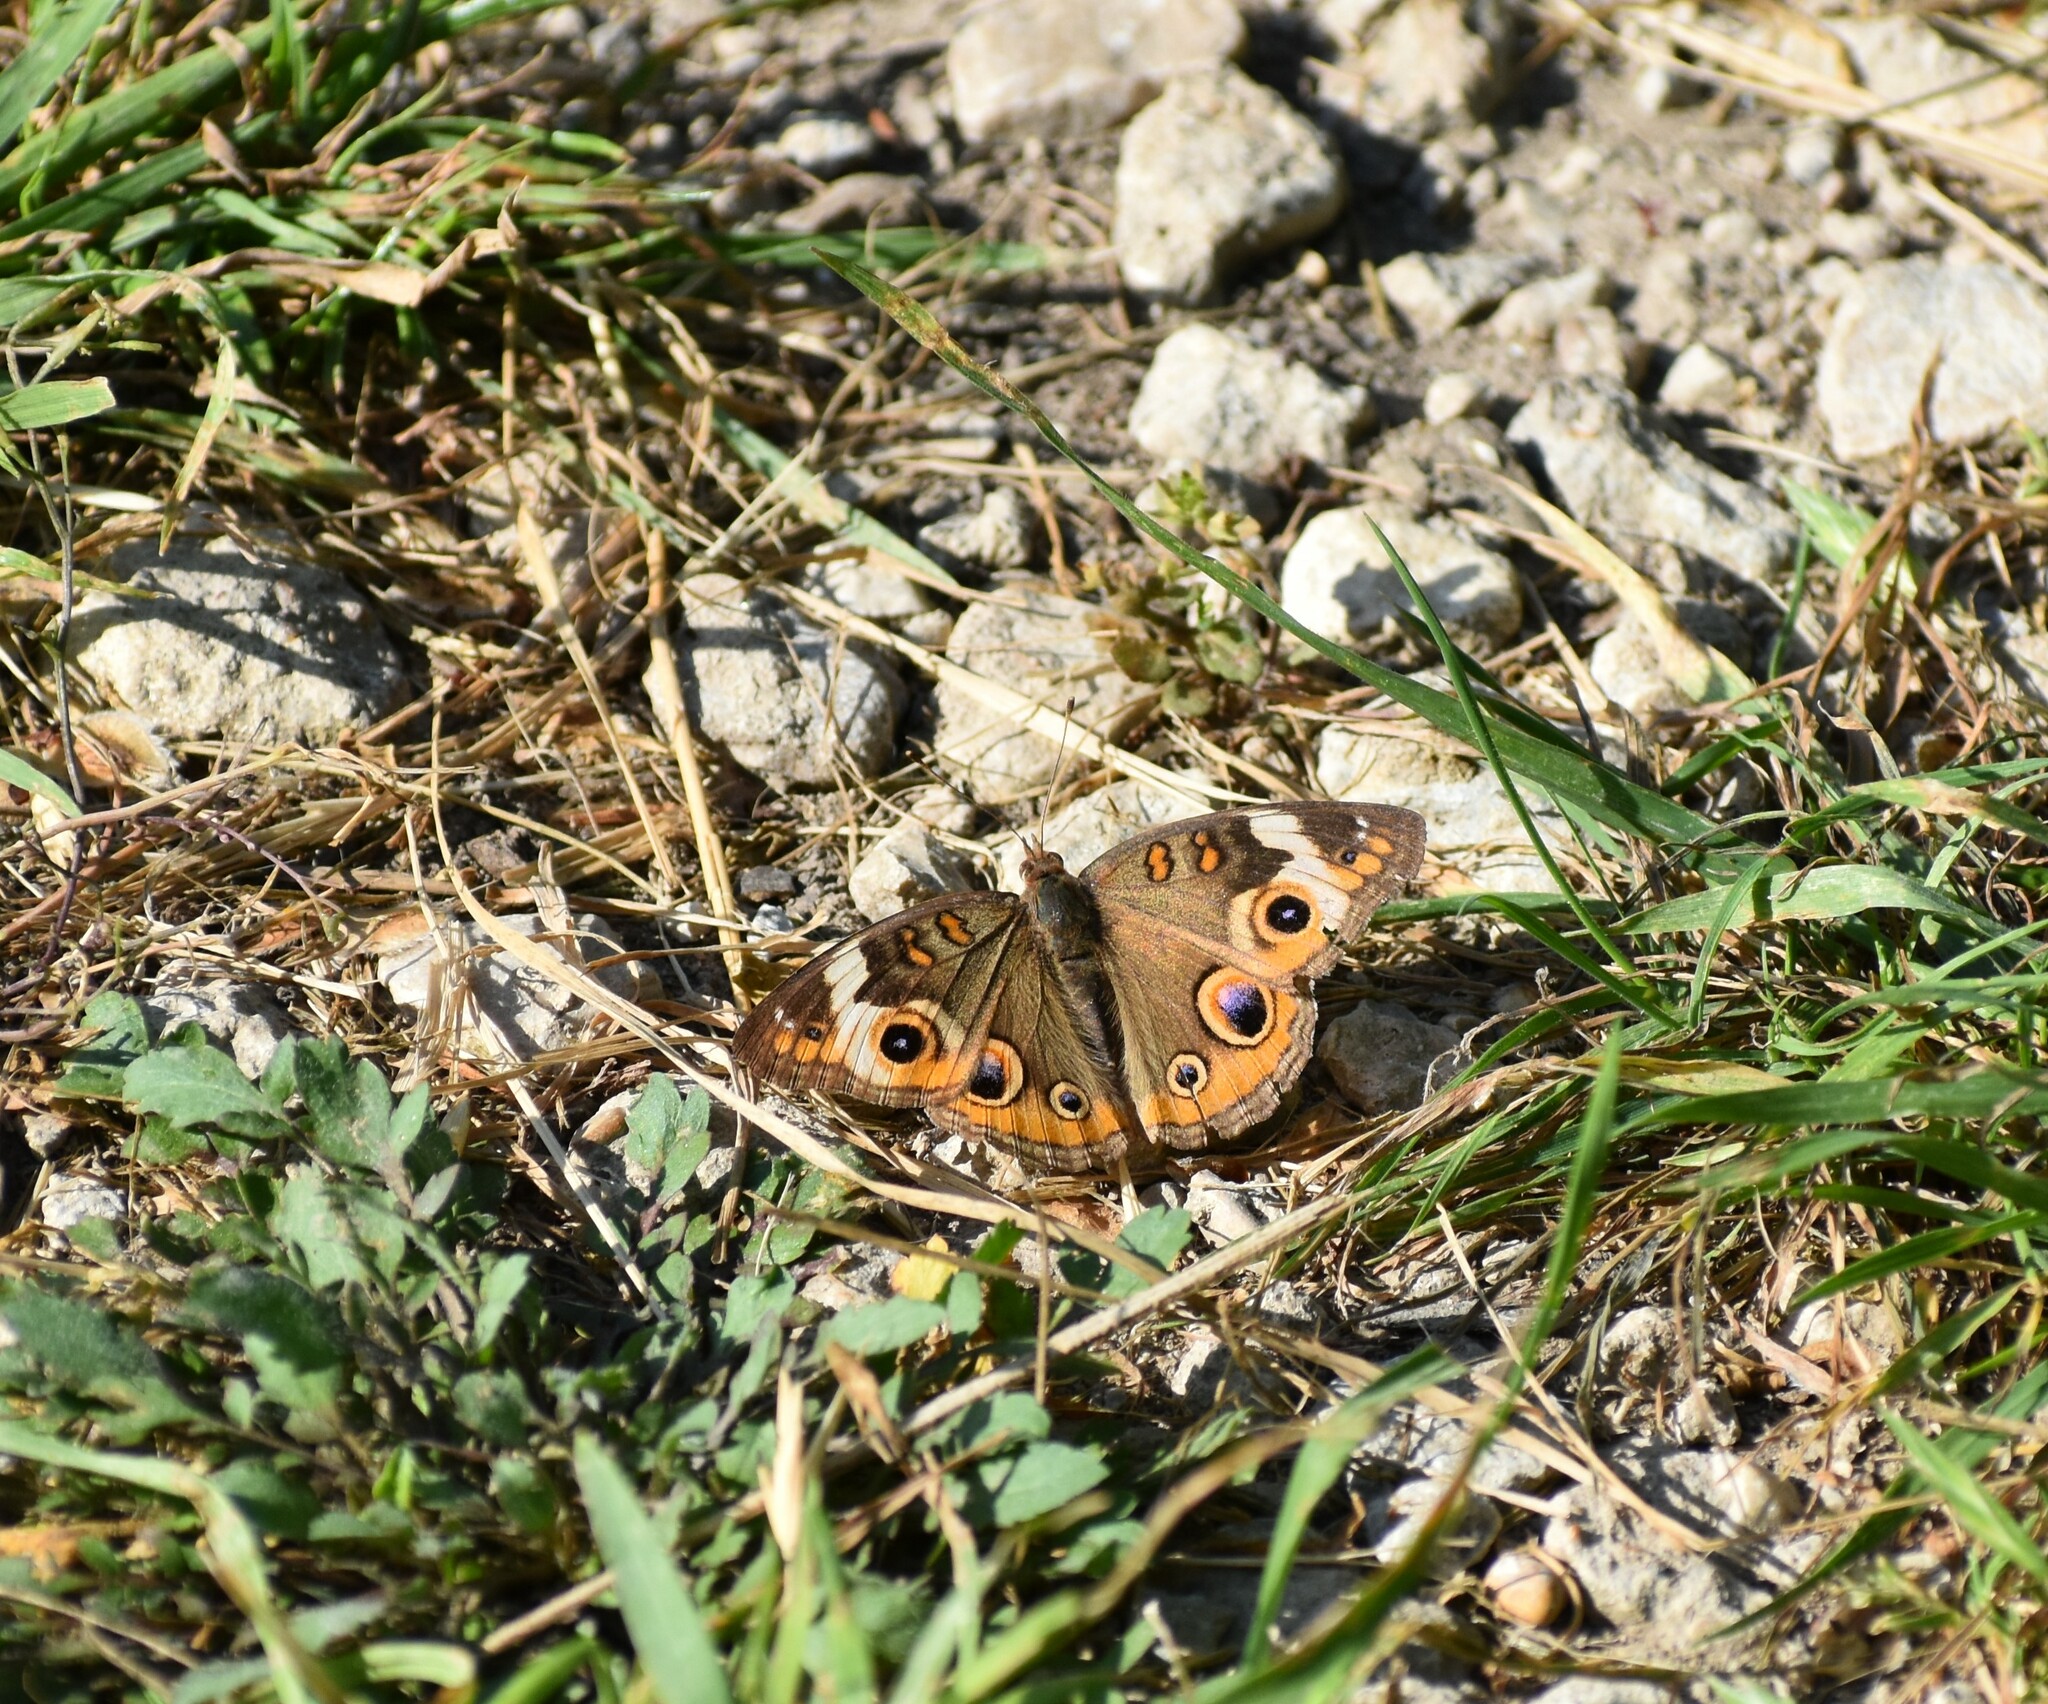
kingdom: Animalia
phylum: Arthropoda
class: Insecta
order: Lepidoptera
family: Nymphalidae
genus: Junonia
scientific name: Junonia coenia
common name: Common buckeye
